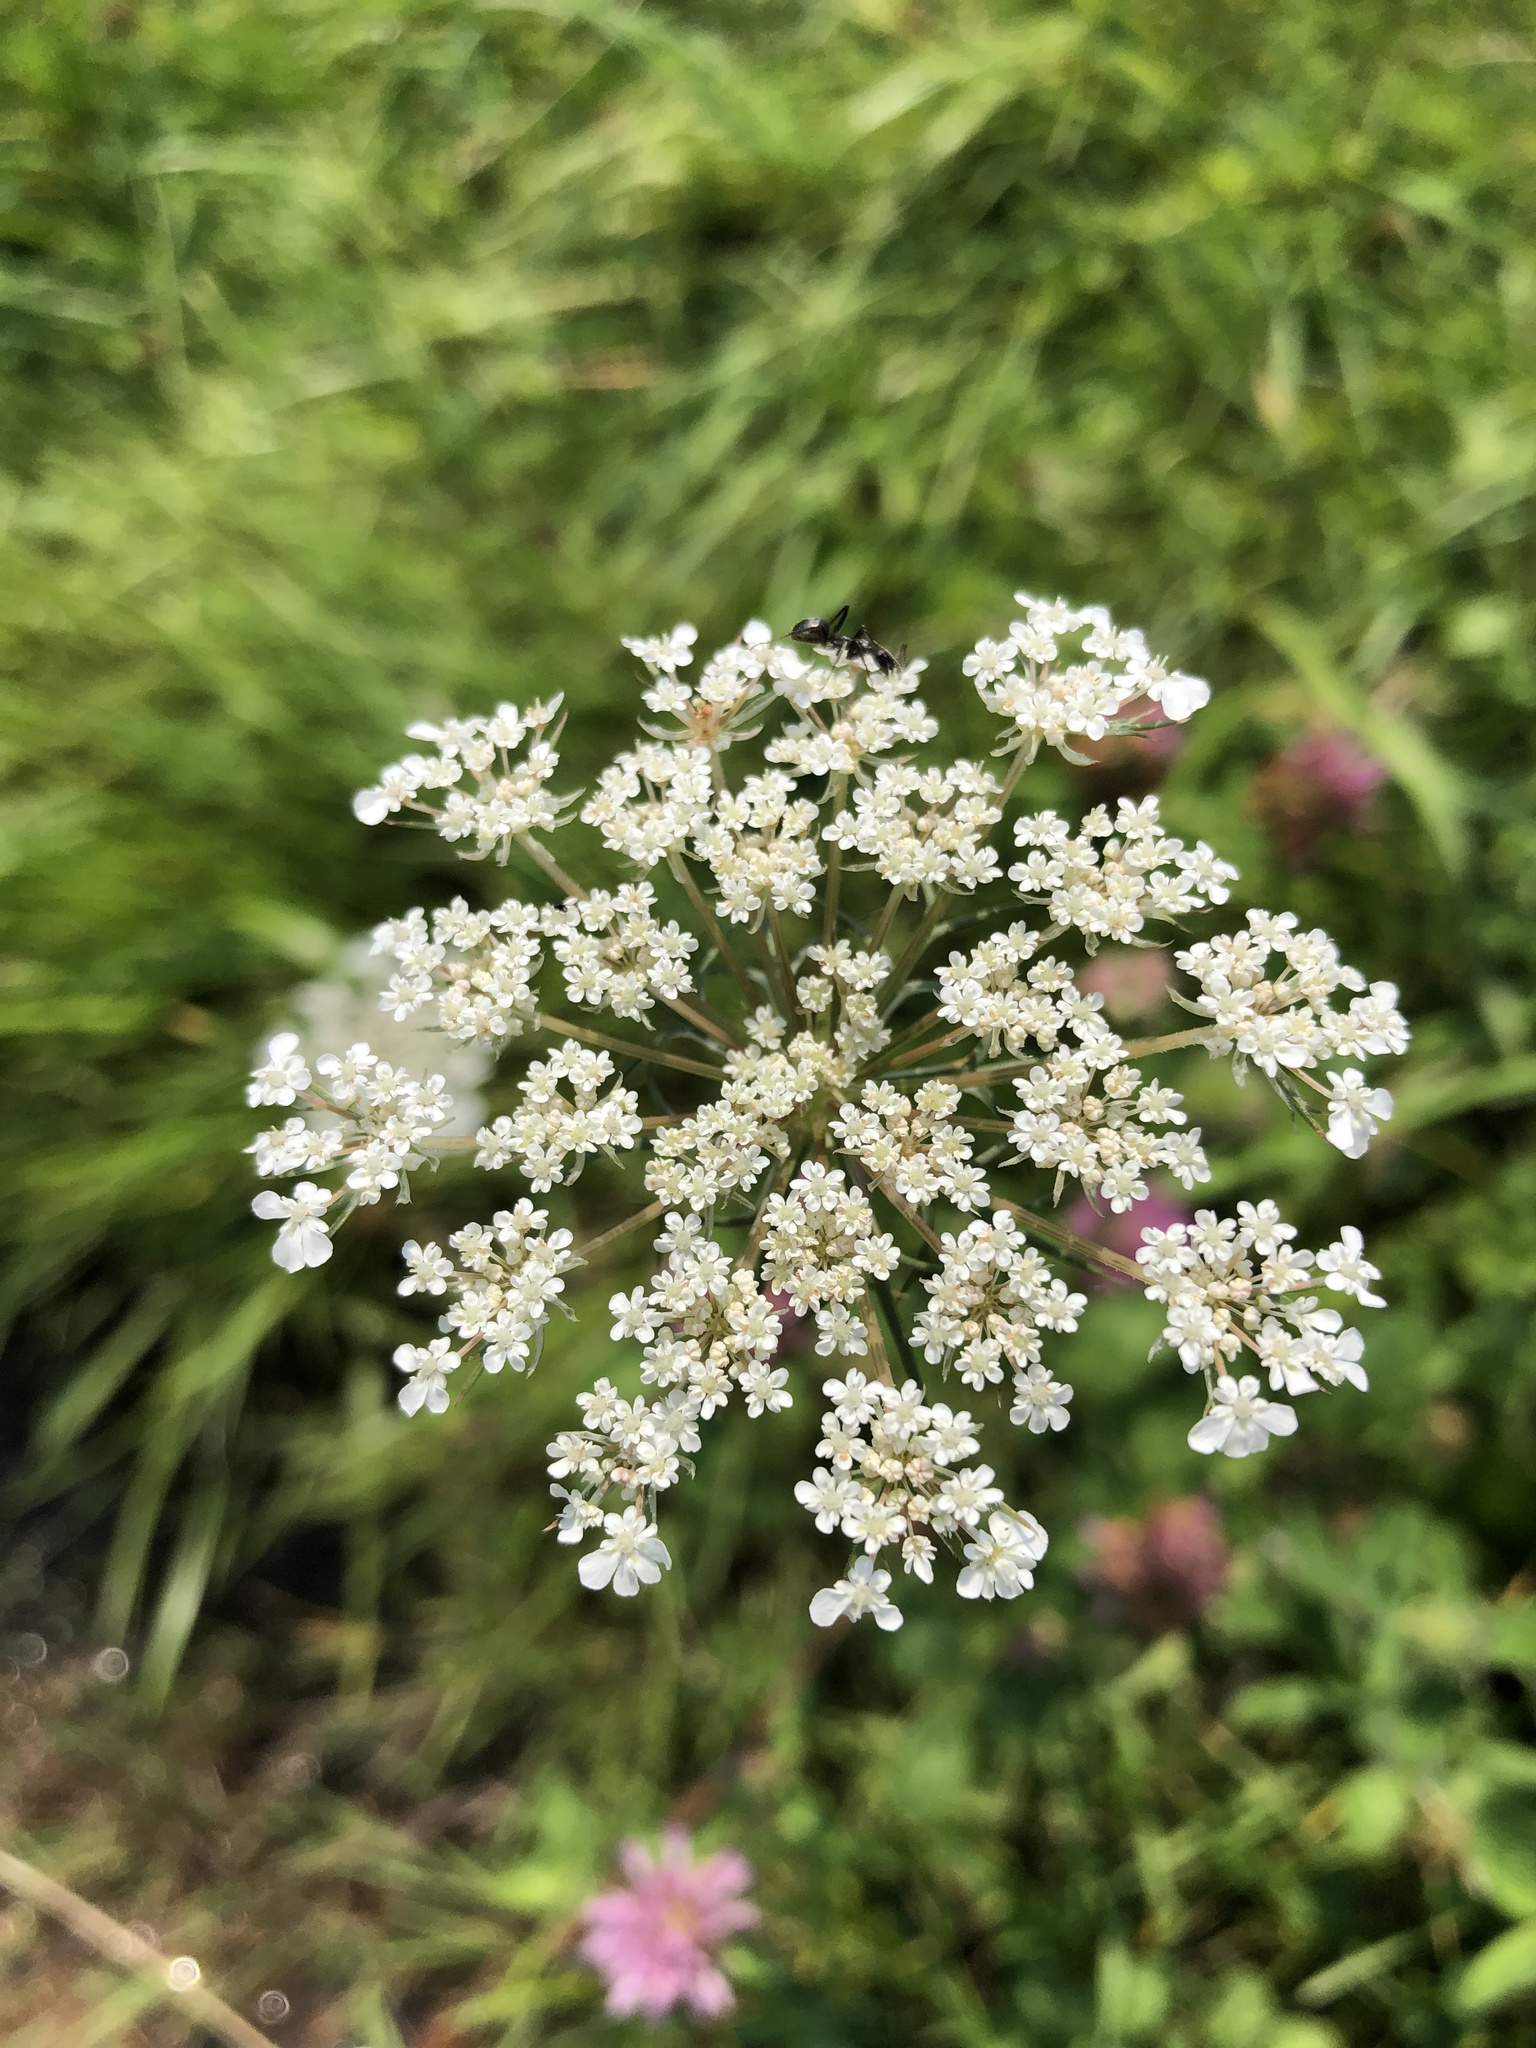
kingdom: Plantae
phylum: Tracheophyta
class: Magnoliopsida
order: Apiales
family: Apiaceae
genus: Daucus
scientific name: Daucus carota
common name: Wild carrot
